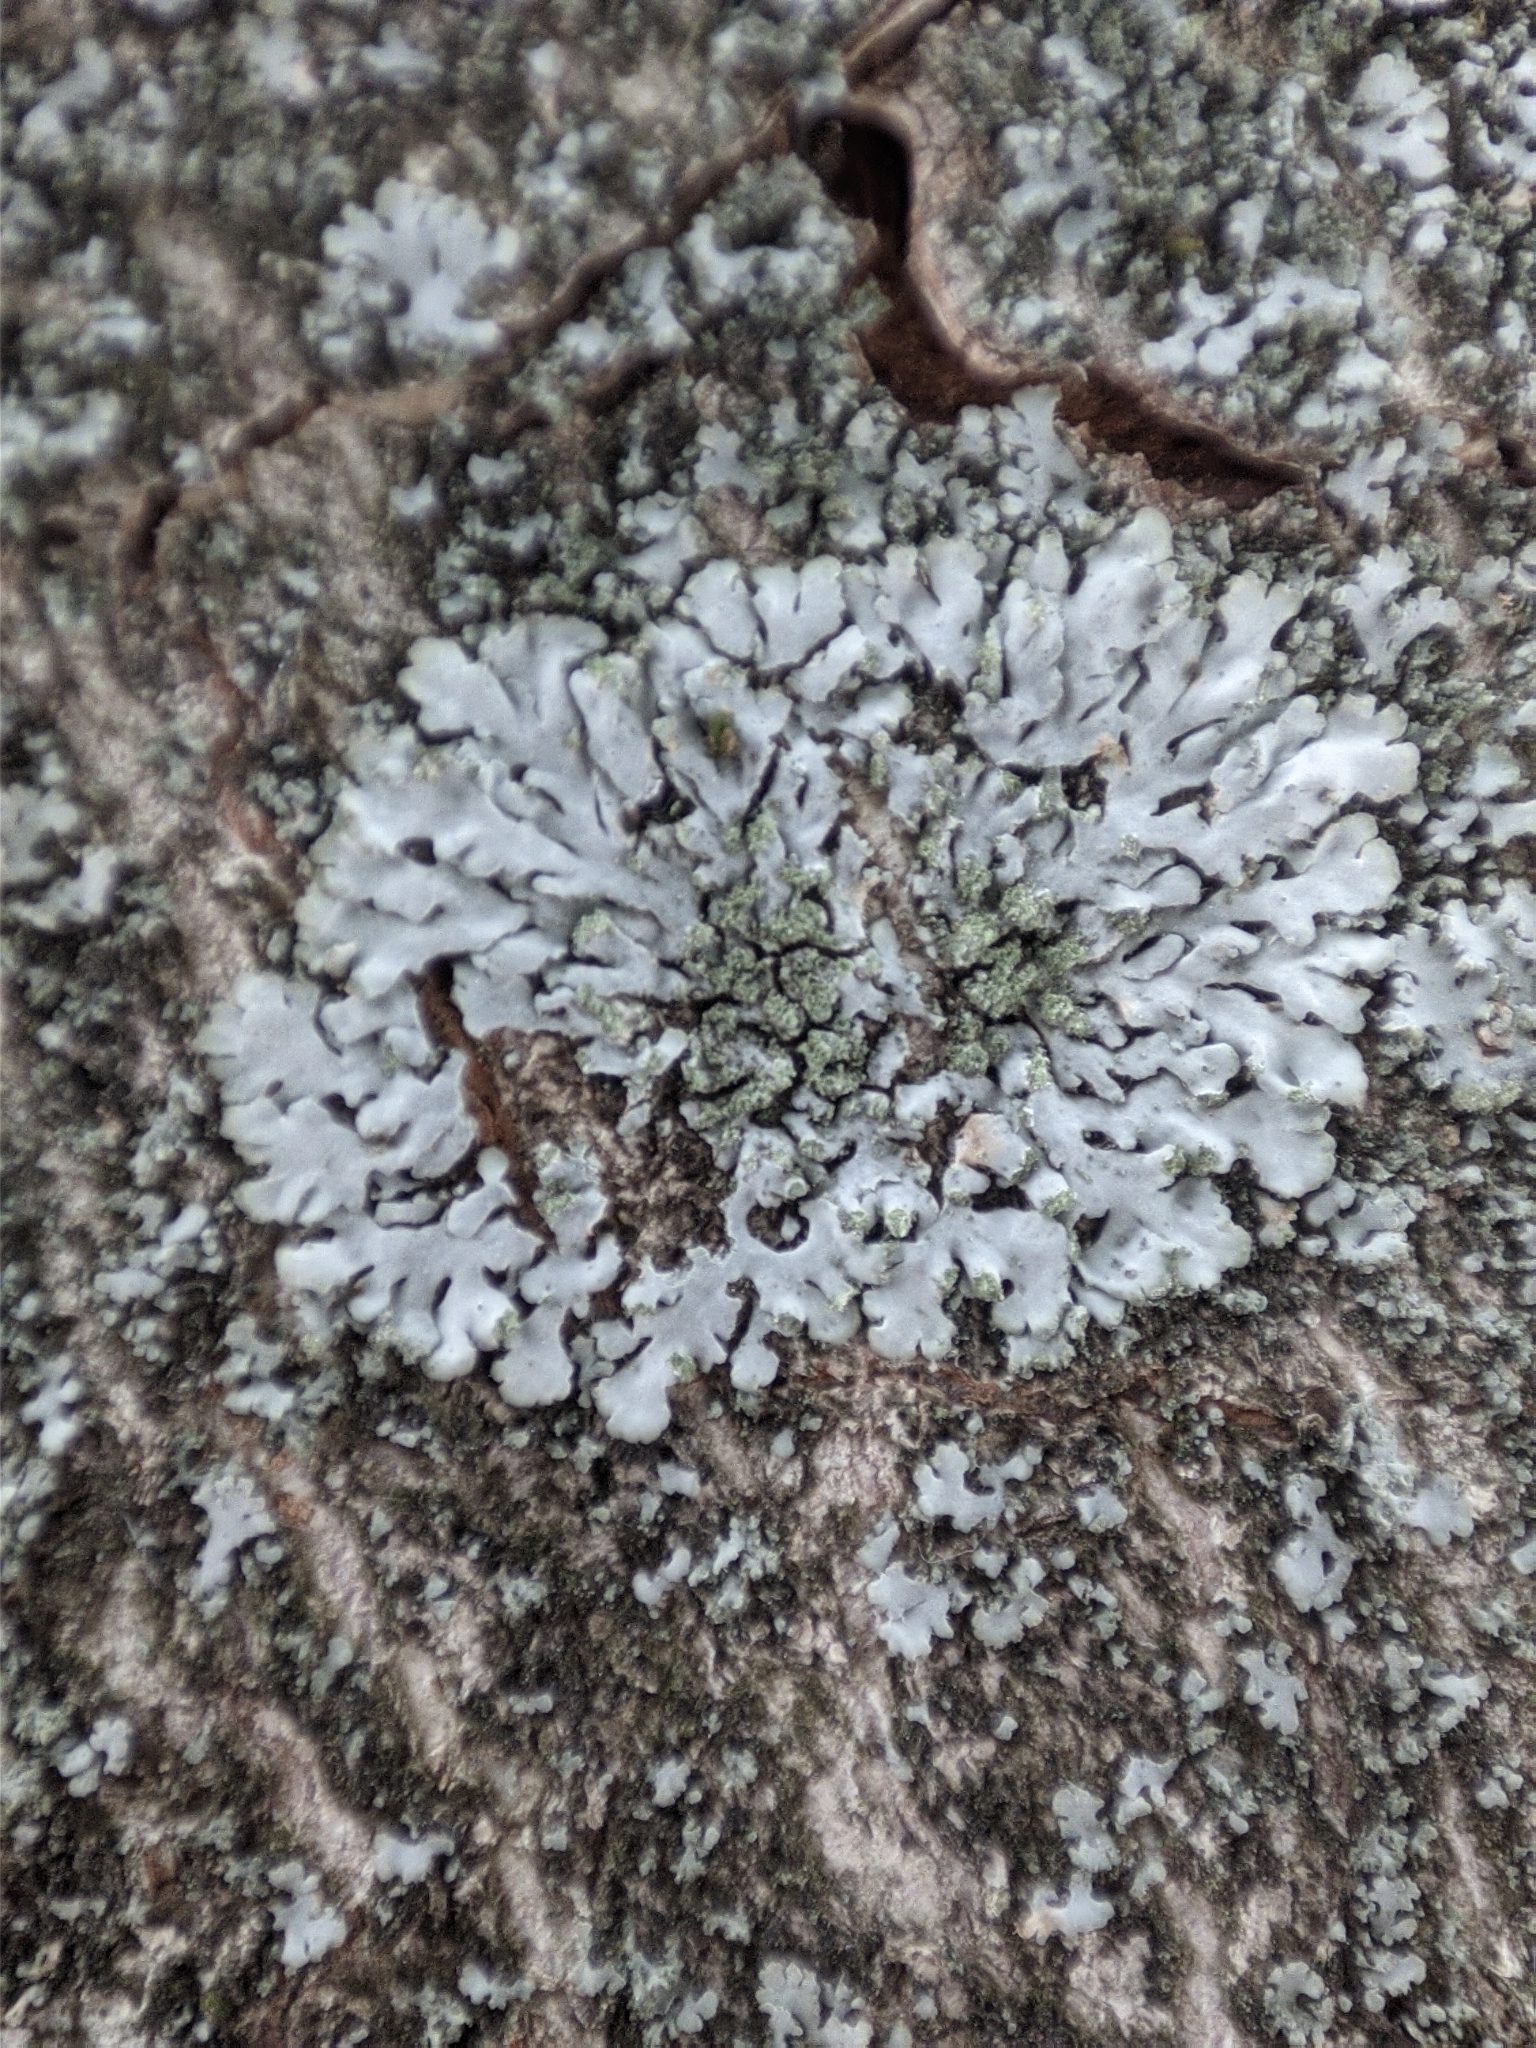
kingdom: Fungi
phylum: Ascomycota
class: Lecanoromycetes
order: Caliciales
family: Physciaceae
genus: Phaeophyscia
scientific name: Phaeophyscia orbicularis
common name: Mealy shadow lichen
